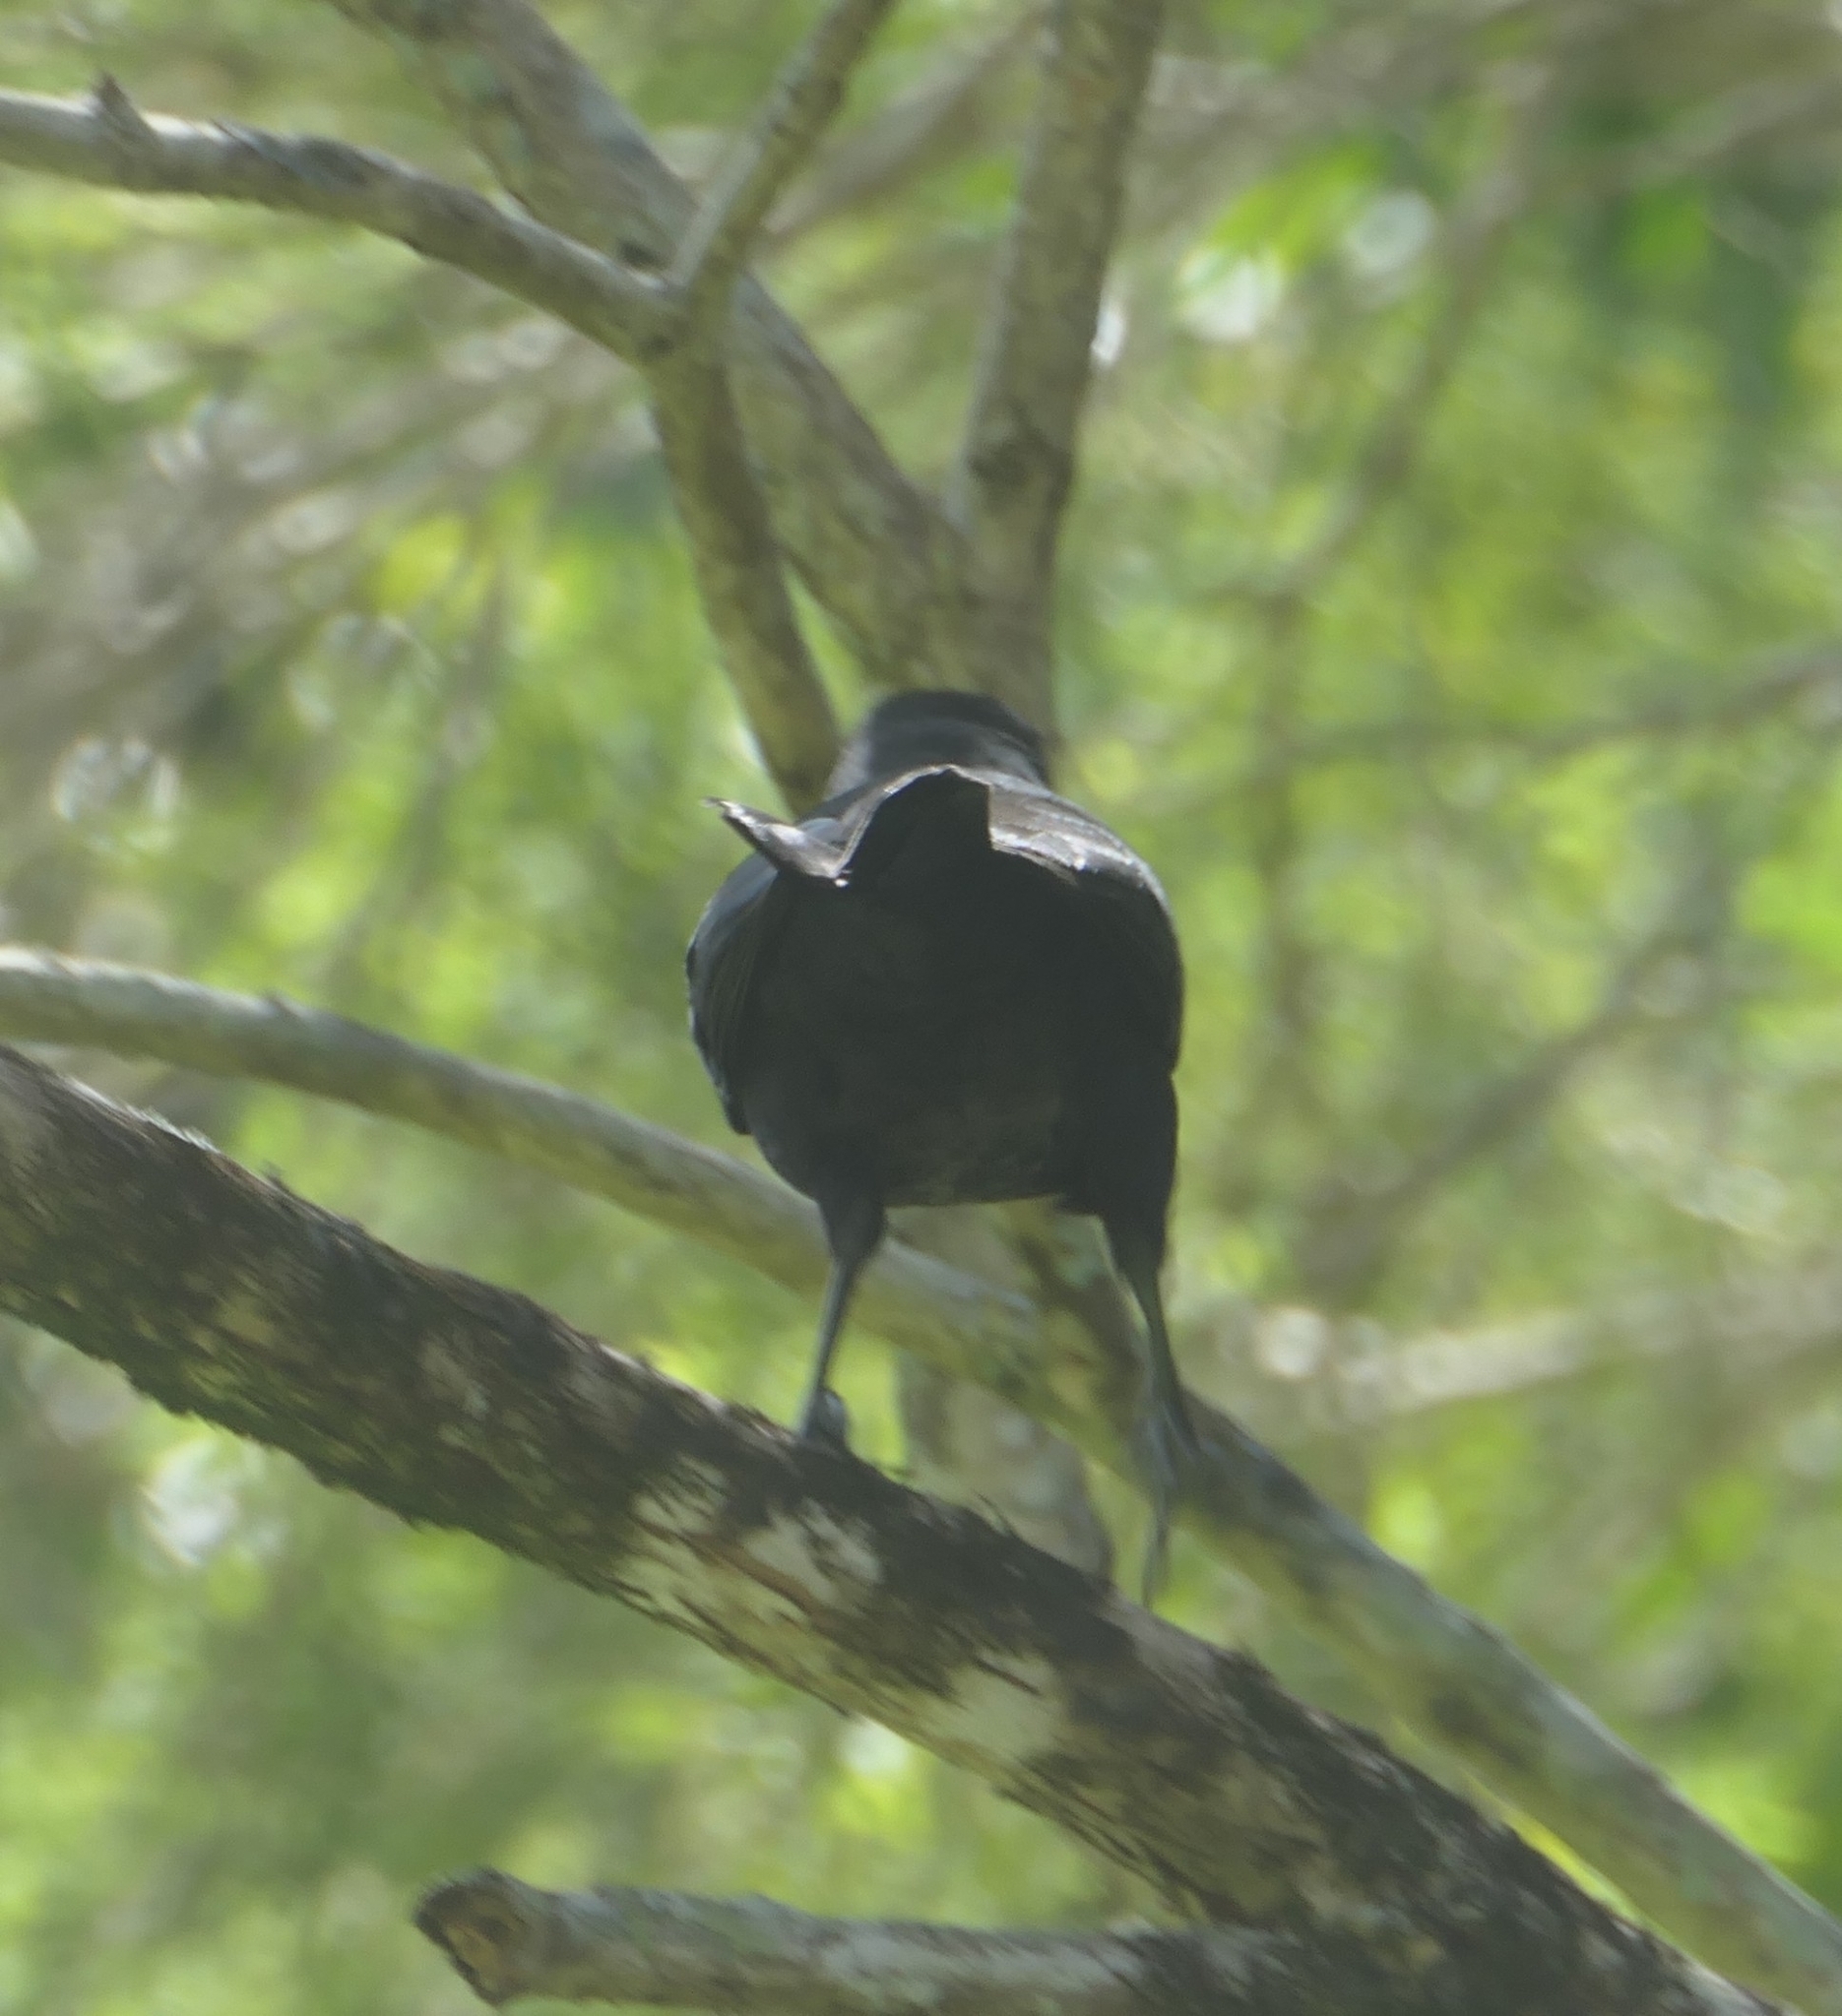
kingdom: Animalia
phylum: Chordata
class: Aves
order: Passeriformes
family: Icteridae
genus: Quiscalus
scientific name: Quiscalus lugubris
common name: Carib grackle
